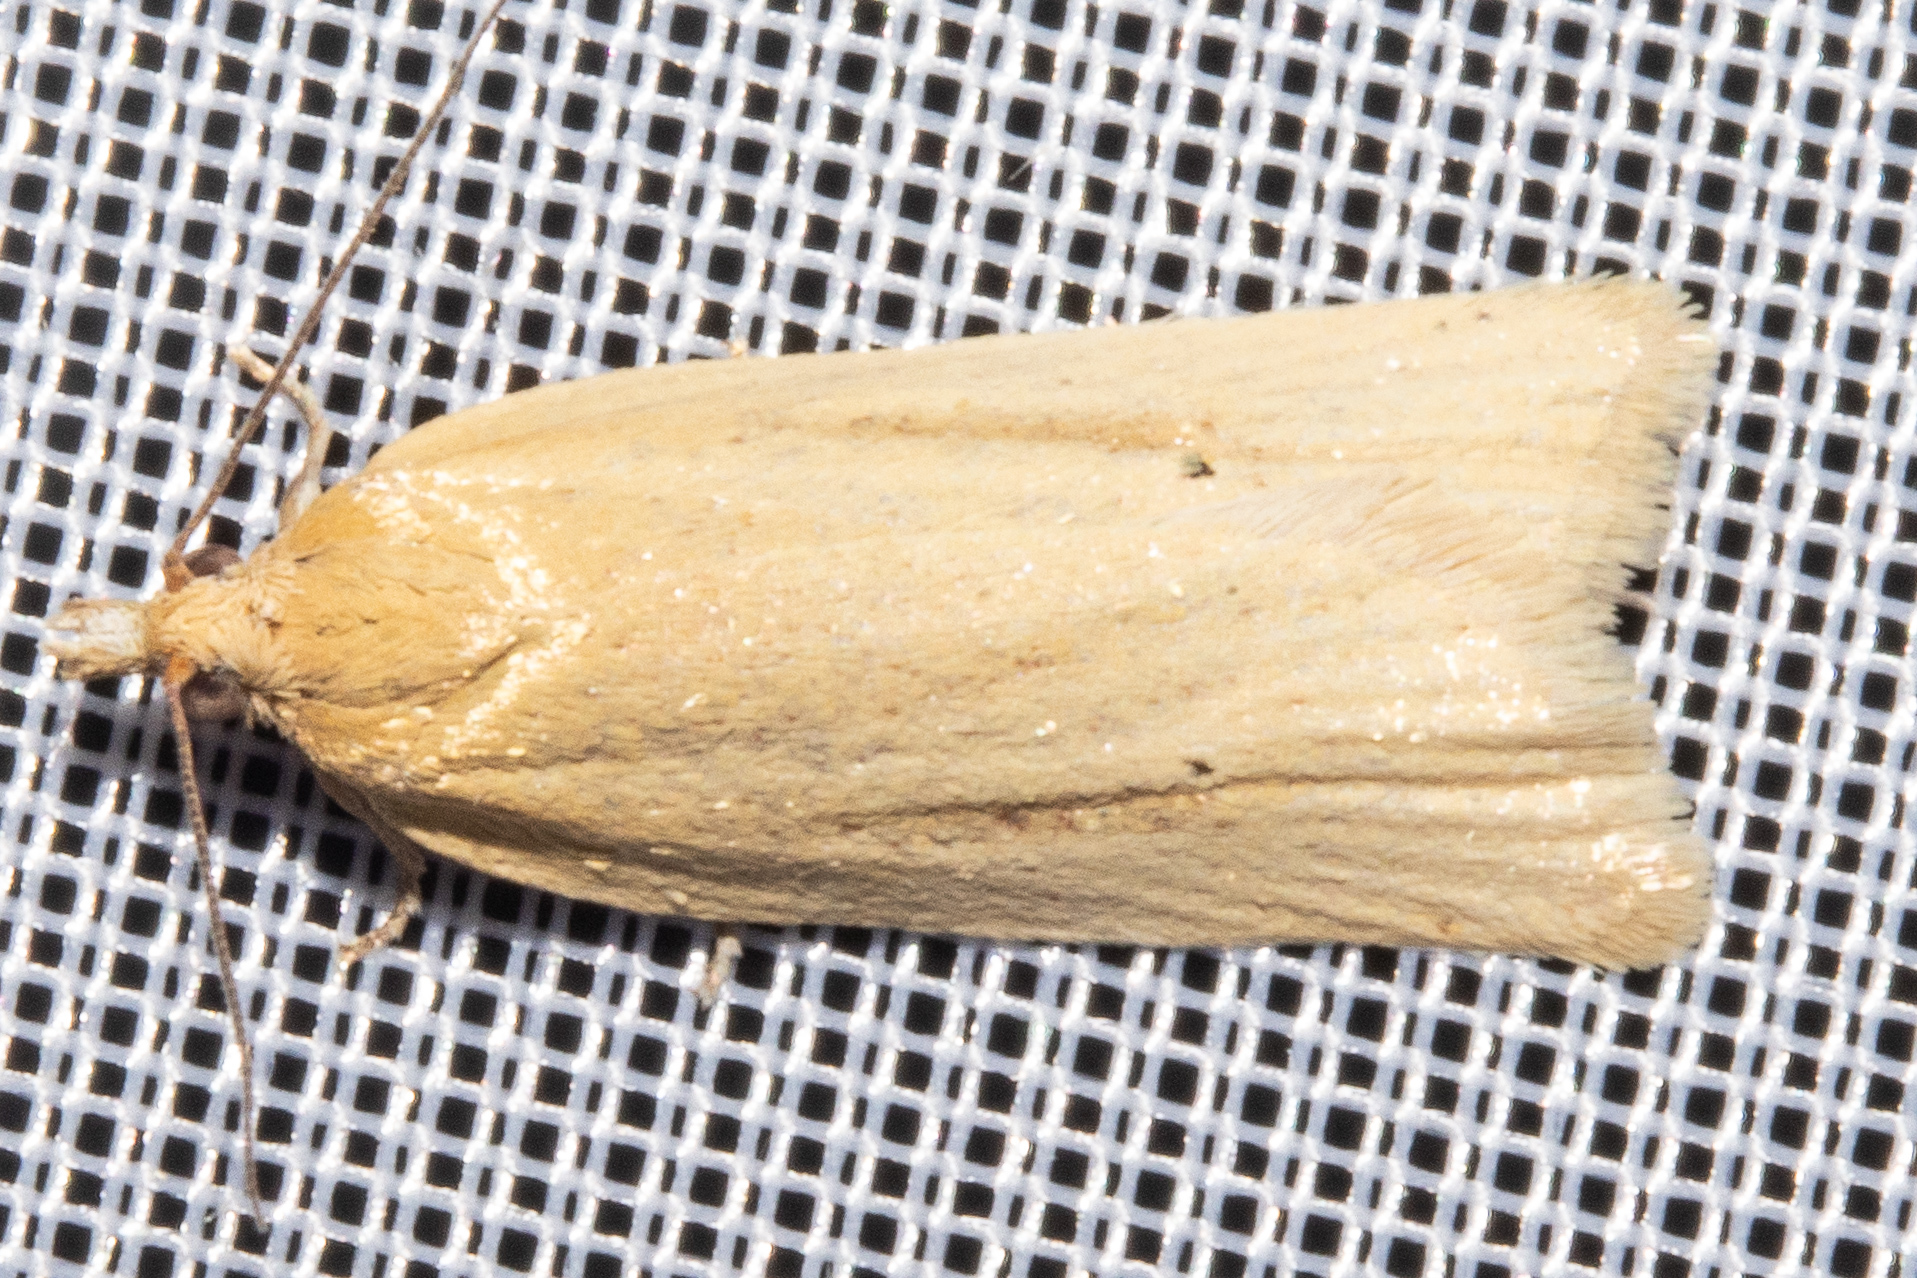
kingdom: Animalia
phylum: Arthropoda
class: Insecta
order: Lepidoptera
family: Tortricidae
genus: Clepsis
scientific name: Clepsis
